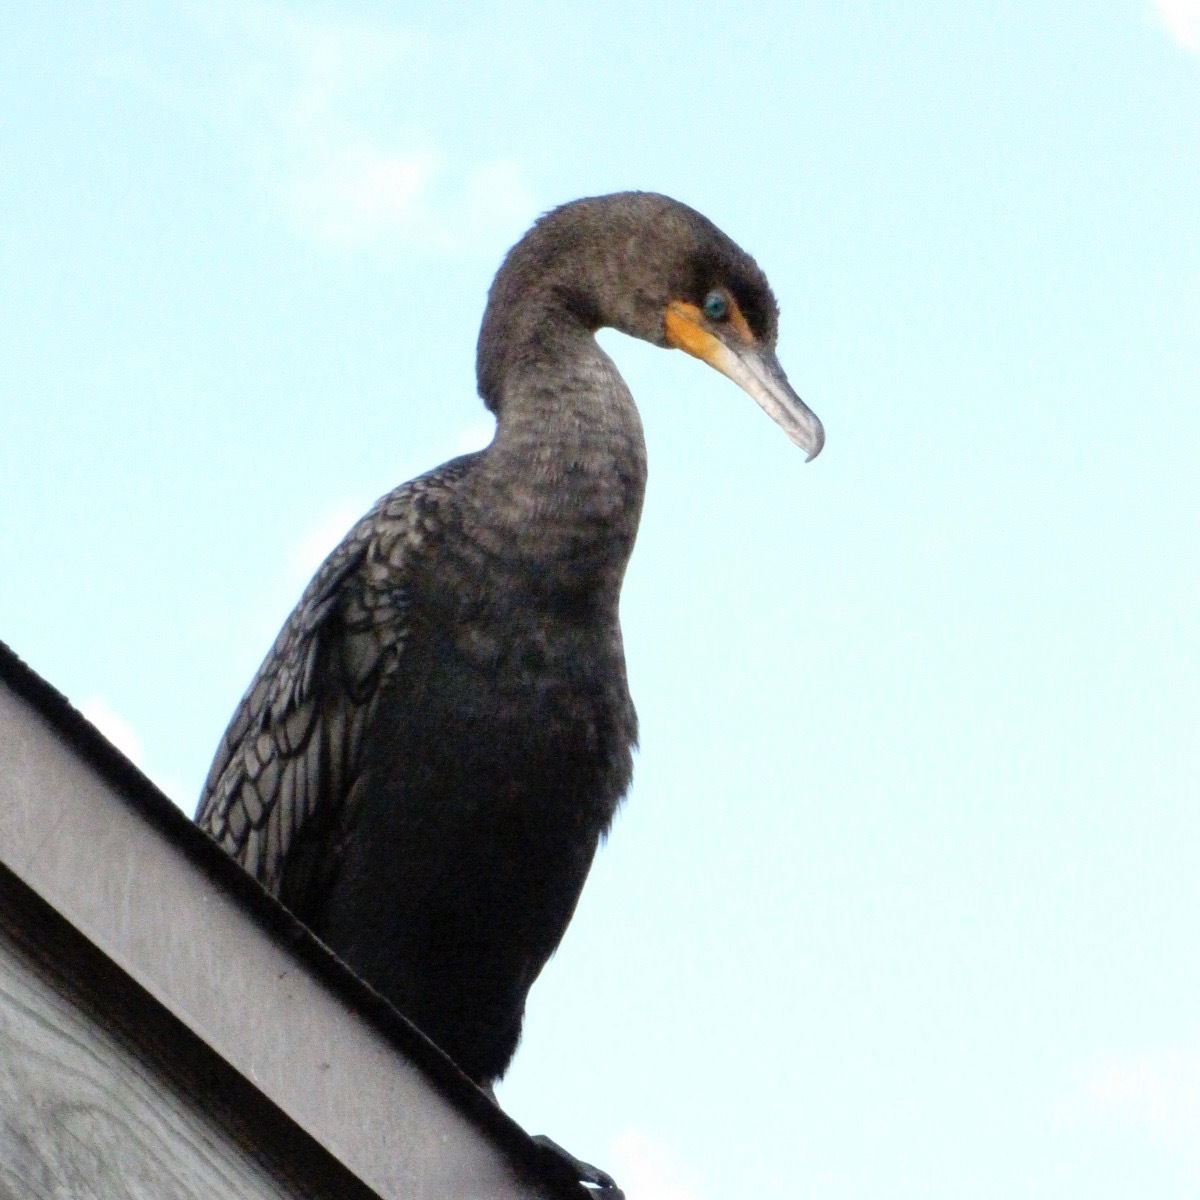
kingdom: Animalia
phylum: Chordata
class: Aves
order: Suliformes
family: Phalacrocoracidae
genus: Phalacrocorax
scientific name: Phalacrocorax auritus
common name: Double-crested cormorant
